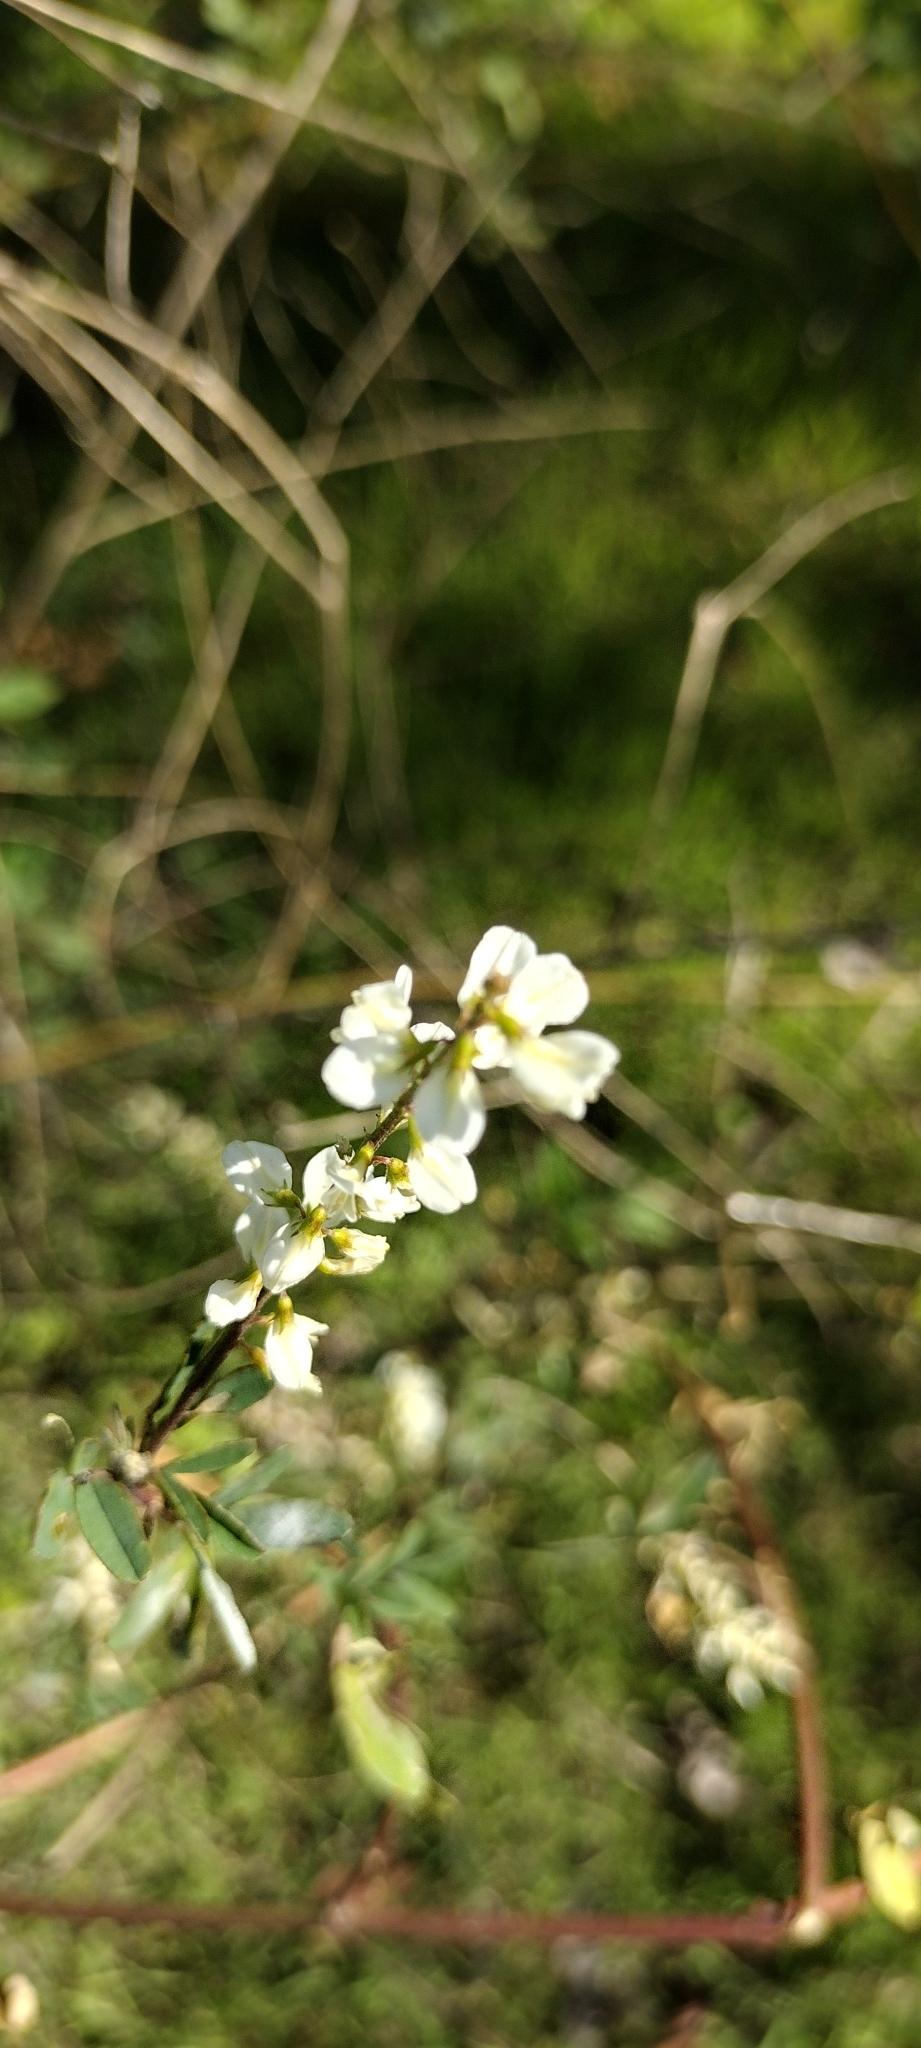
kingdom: Plantae
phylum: Tracheophyta
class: Magnoliopsida
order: Fabales
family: Fabaceae
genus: Melilotus
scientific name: Melilotus albus
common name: White melilot
